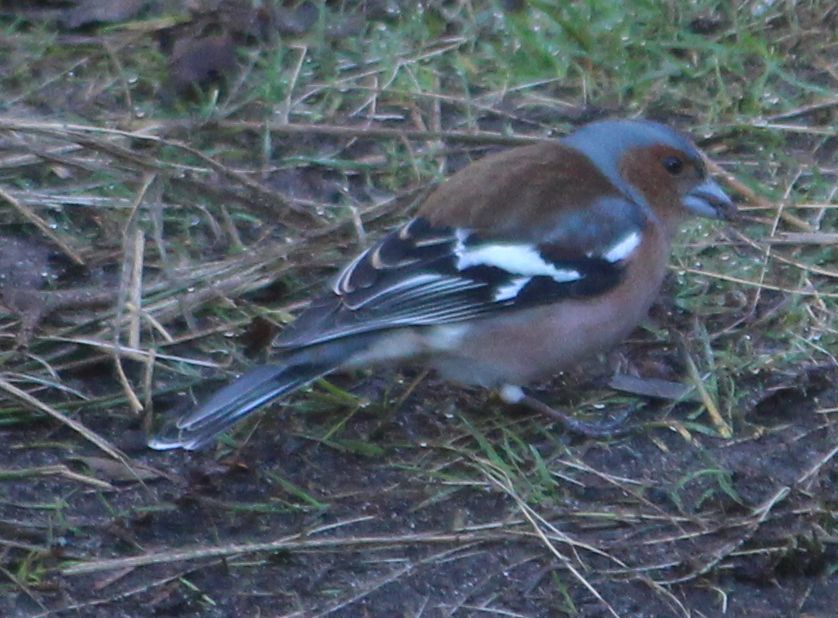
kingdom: Animalia
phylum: Chordata
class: Aves
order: Passeriformes
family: Fringillidae
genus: Fringilla
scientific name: Fringilla coelebs
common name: Common chaffinch
